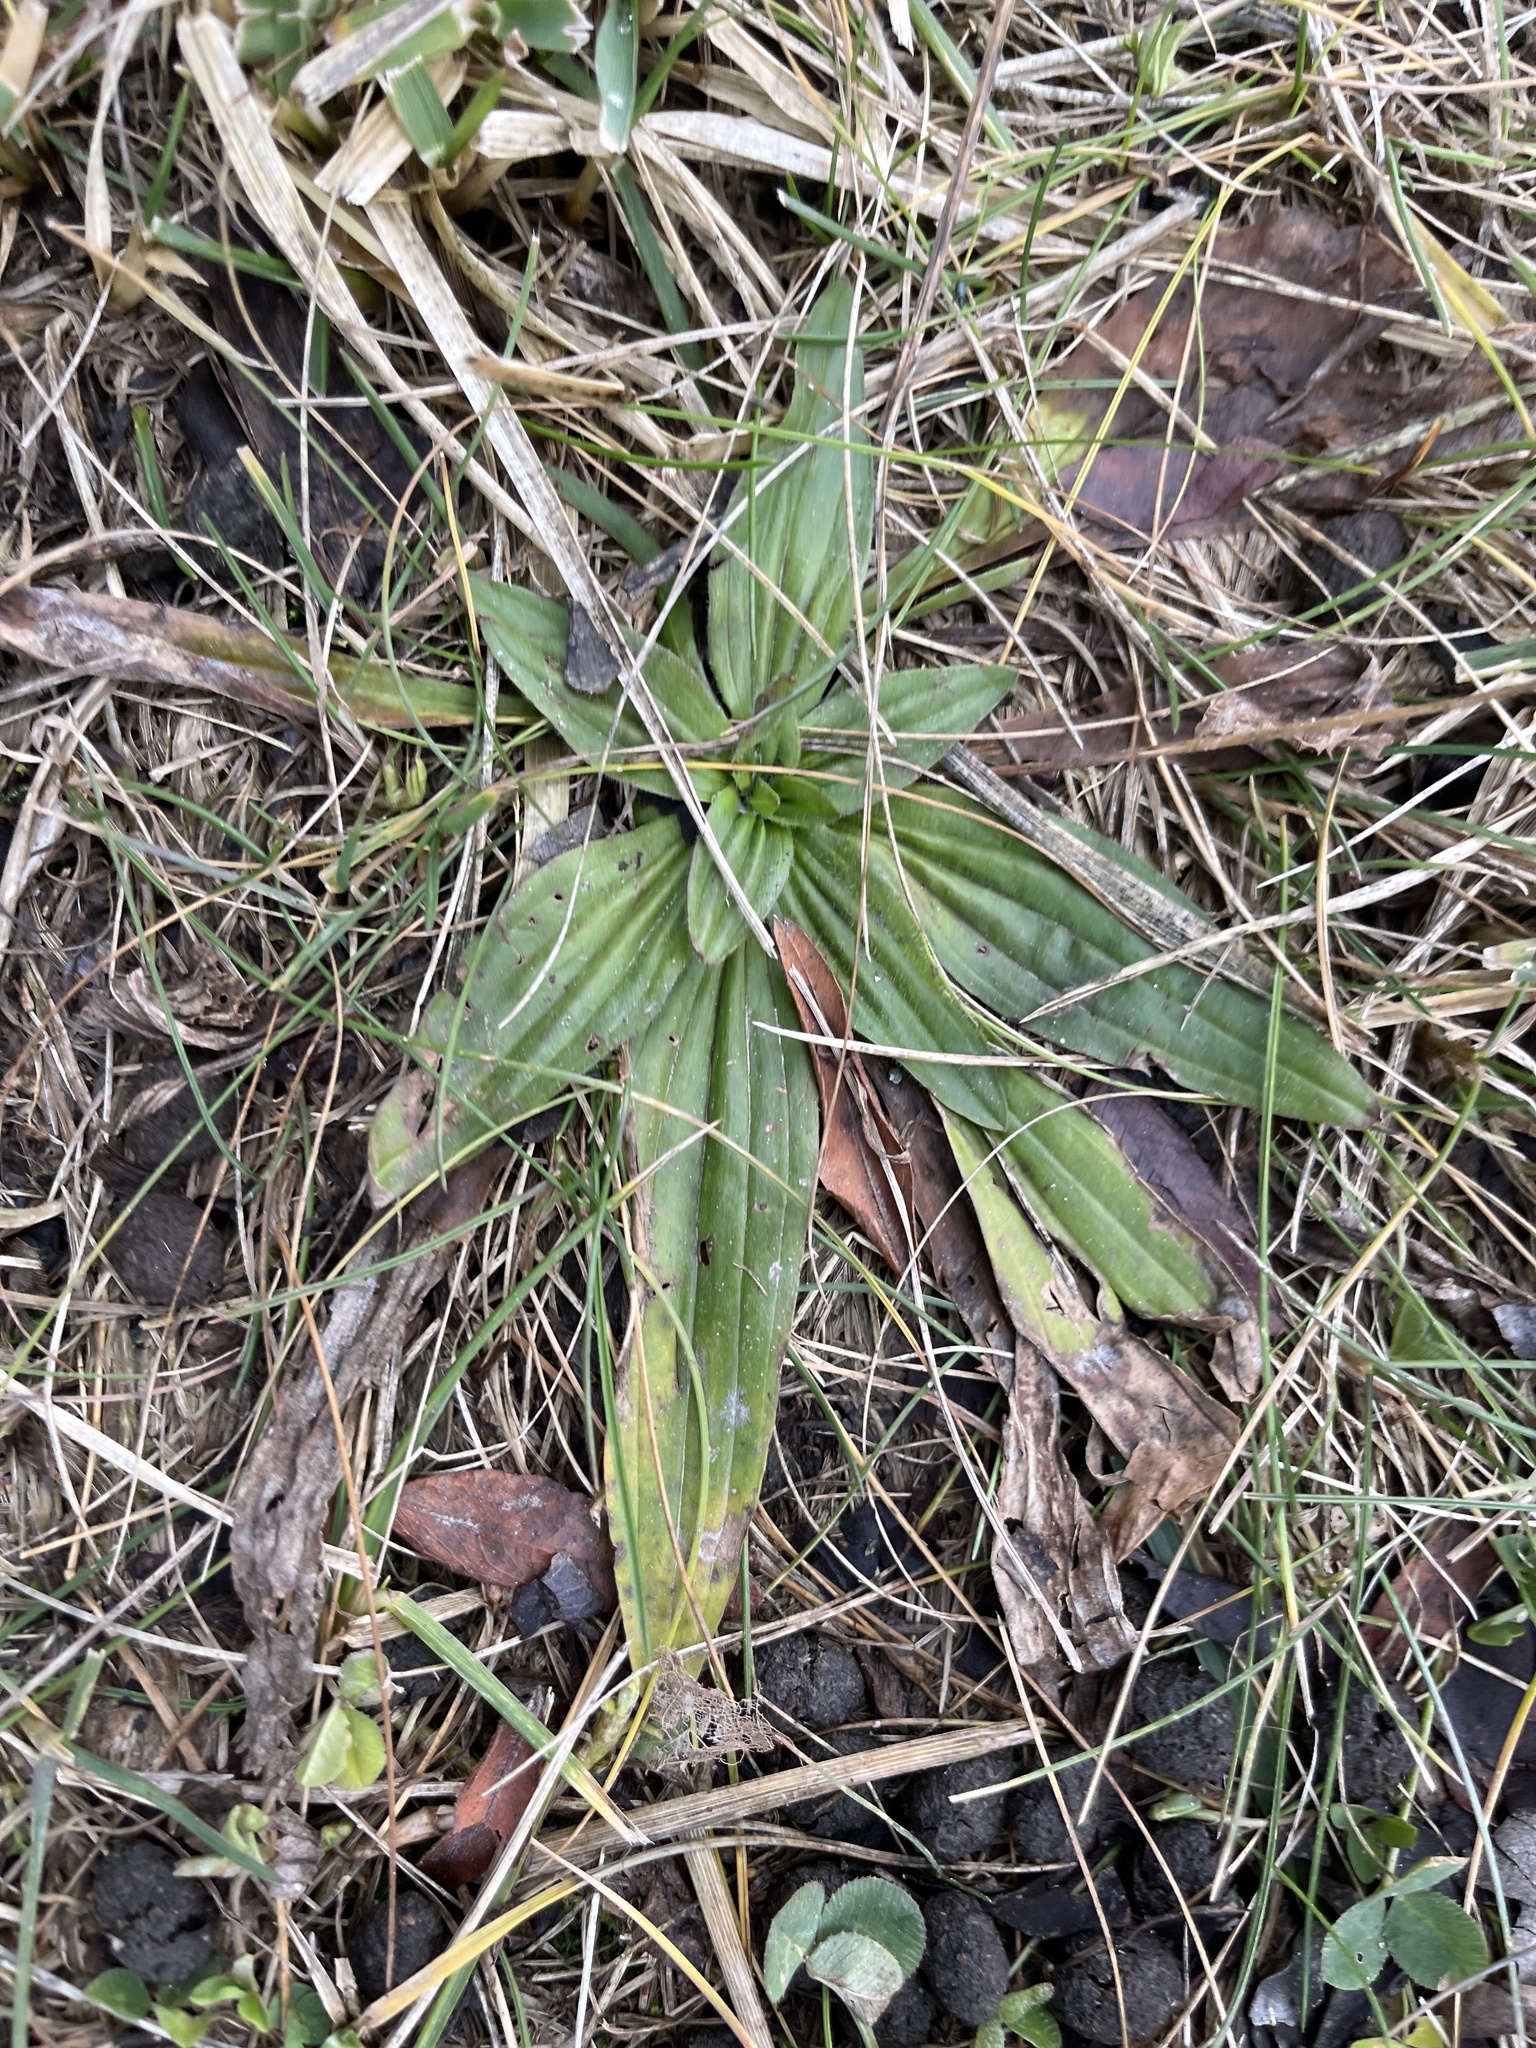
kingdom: Plantae
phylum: Tracheophyta
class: Magnoliopsida
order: Lamiales
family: Plantaginaceae
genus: Plantago
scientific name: Plantago lanceolata
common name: Ribwort plantain
